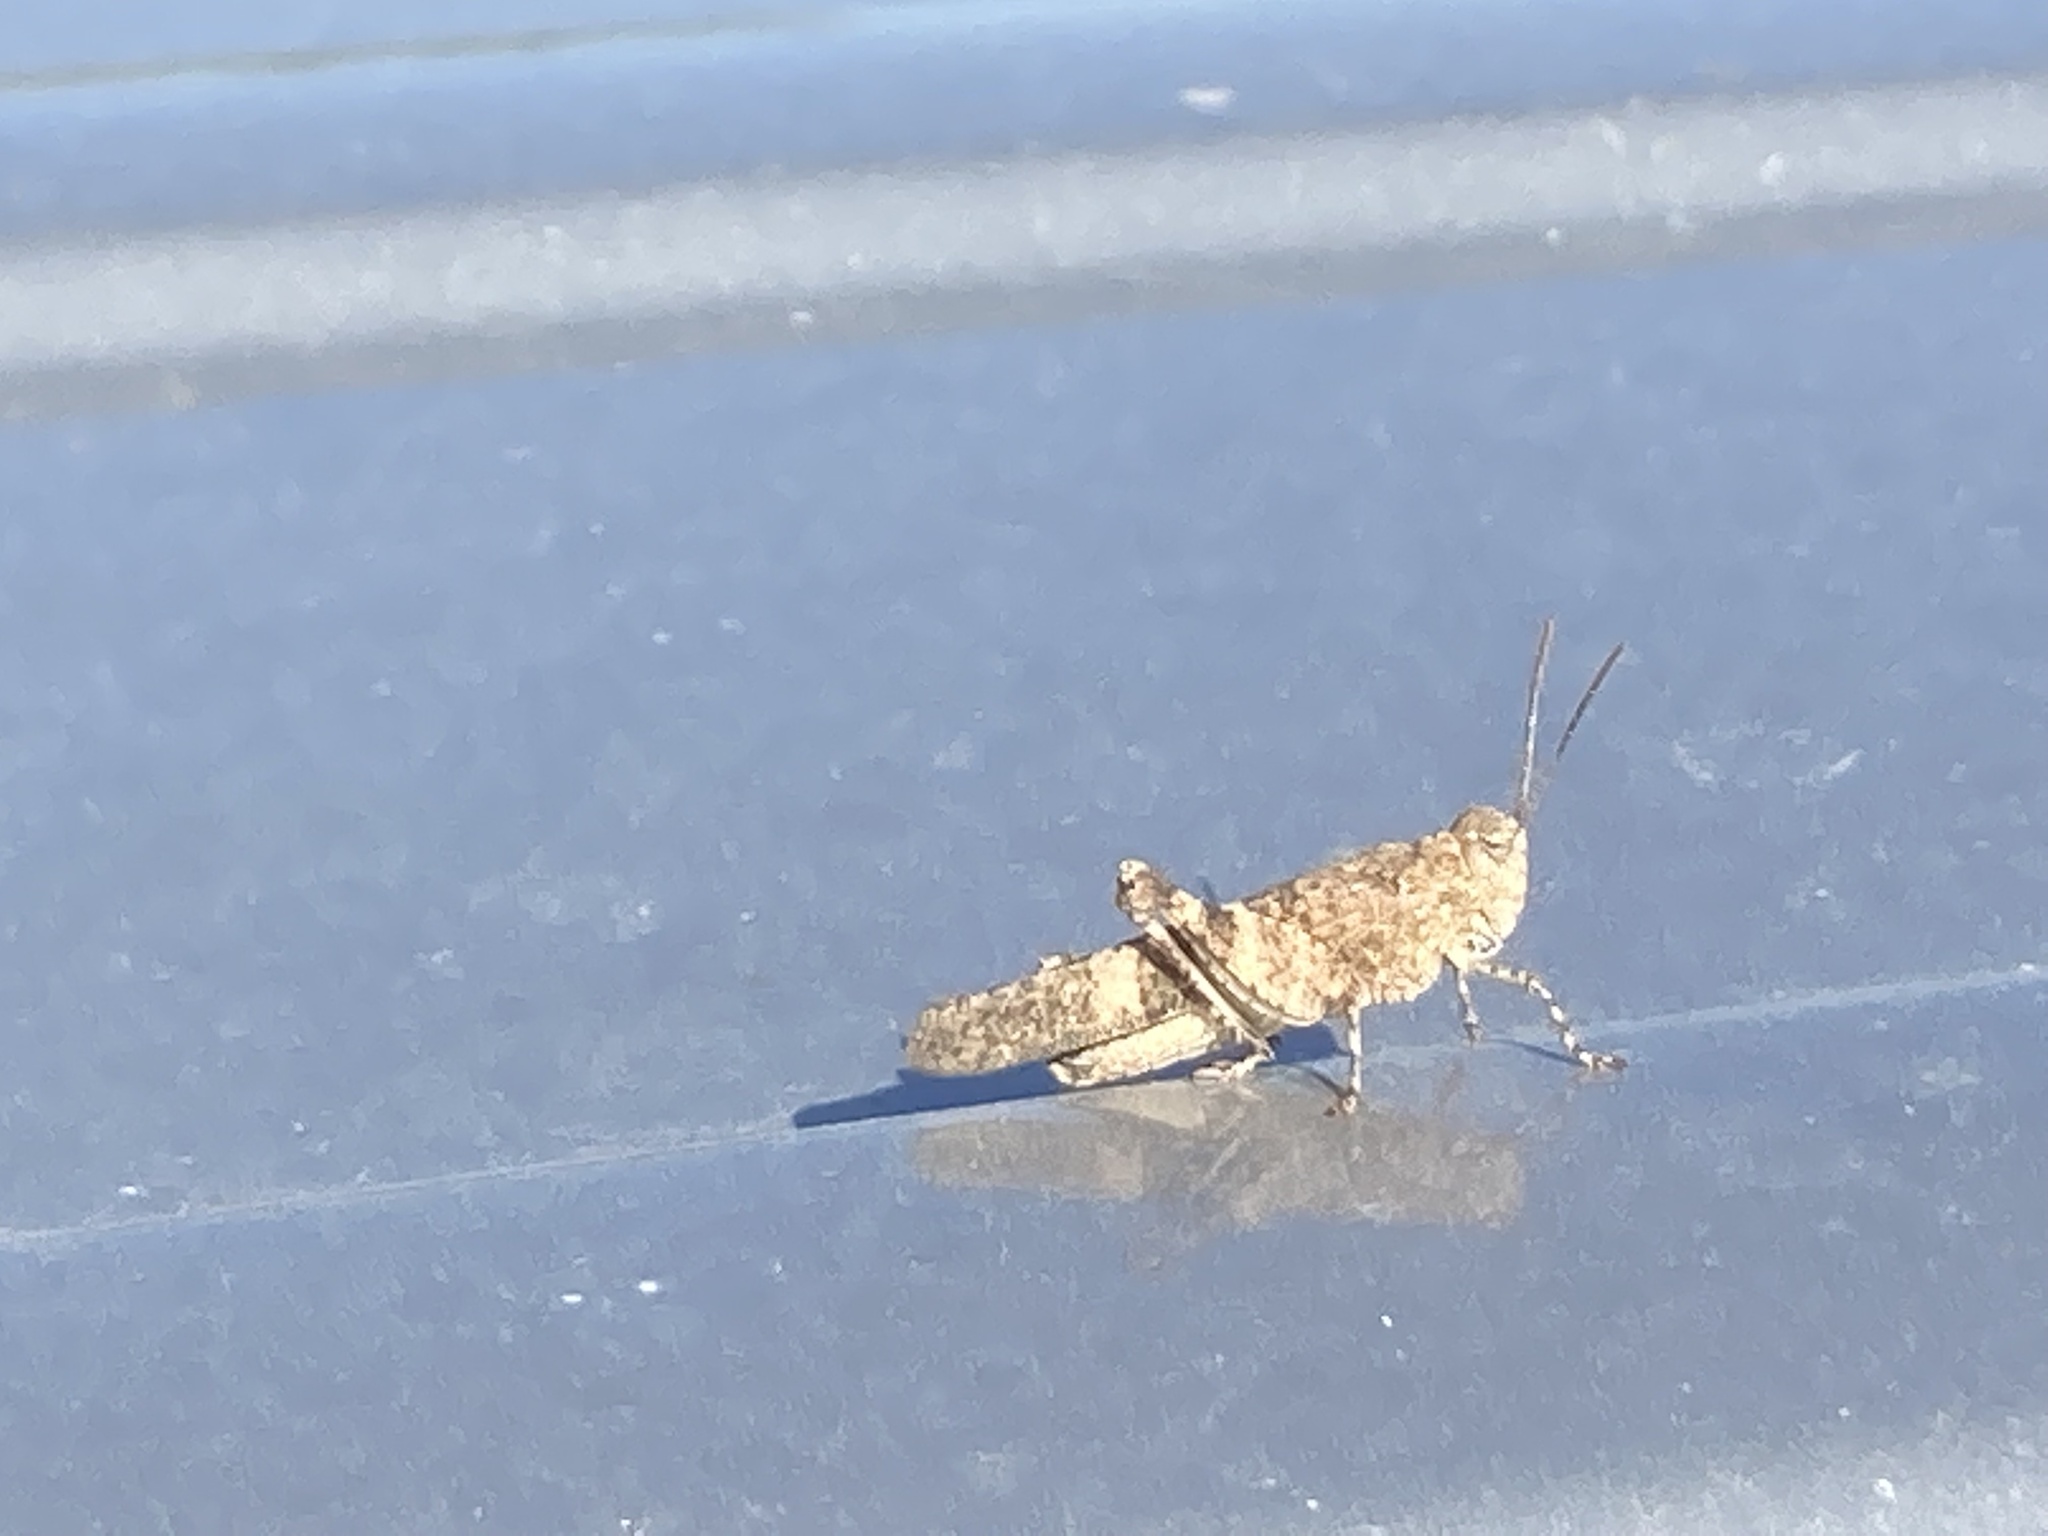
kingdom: Animalia
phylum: Arthropoda
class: Insecta
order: Orthoptera
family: Acrididae
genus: Sphingonotus
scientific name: Sphingonotus rubescens
